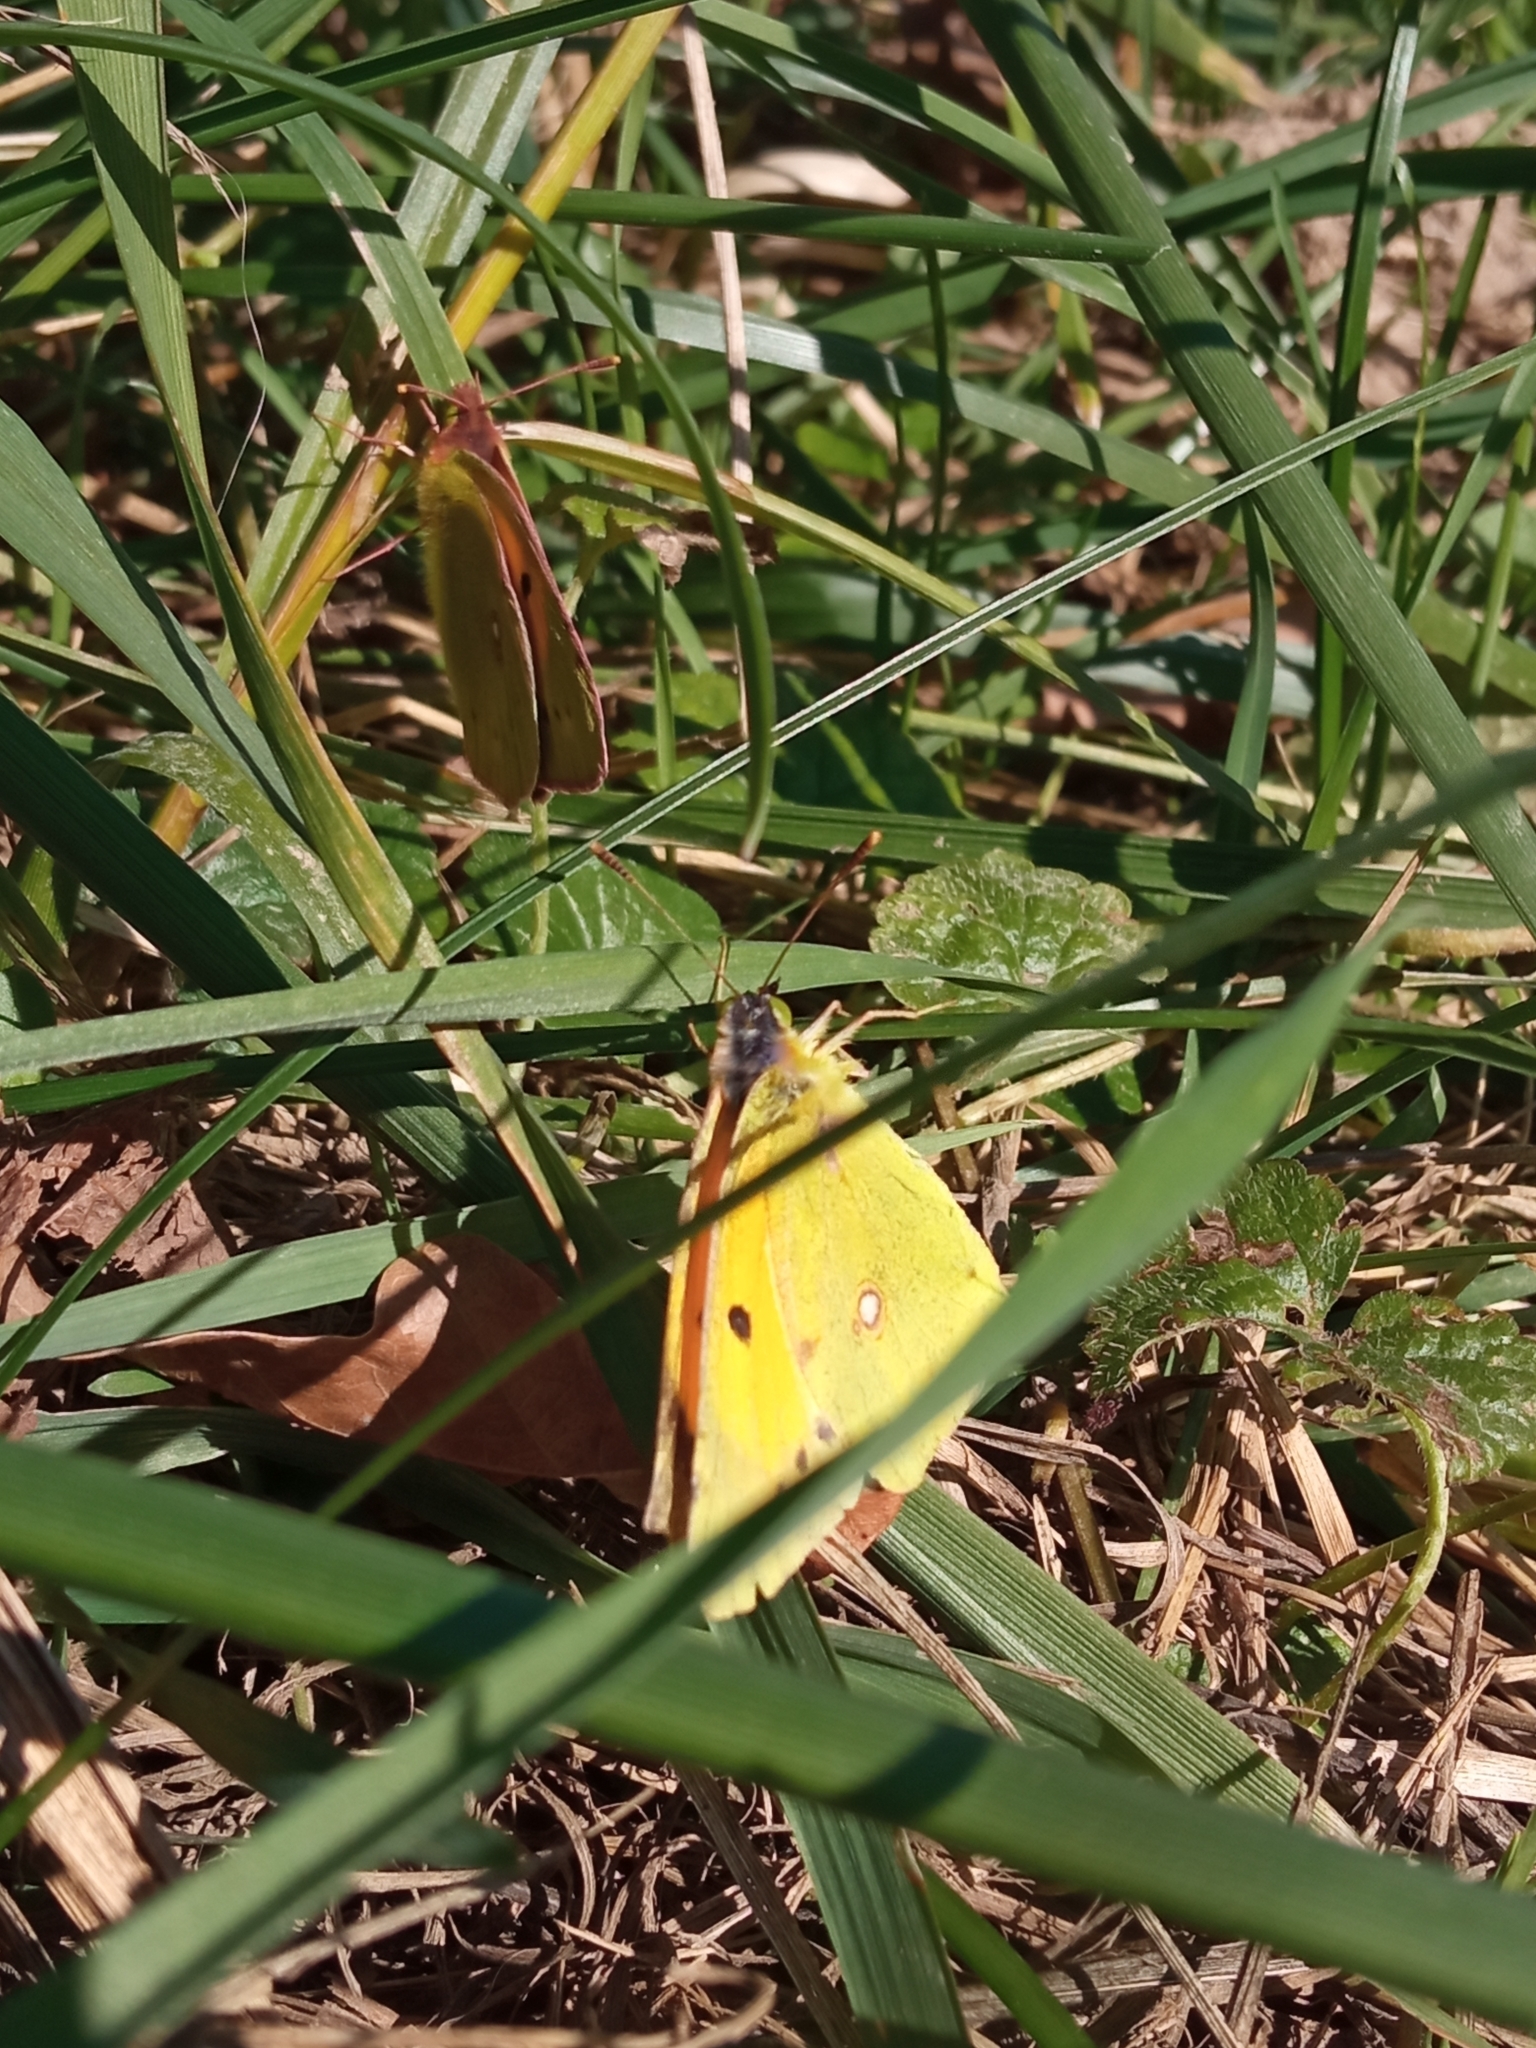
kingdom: Animalia
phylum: Arthropoda
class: Insecta
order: Lepidoptera
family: Pieridae
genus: Colias
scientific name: Colias croceus
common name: Clouded yellow
